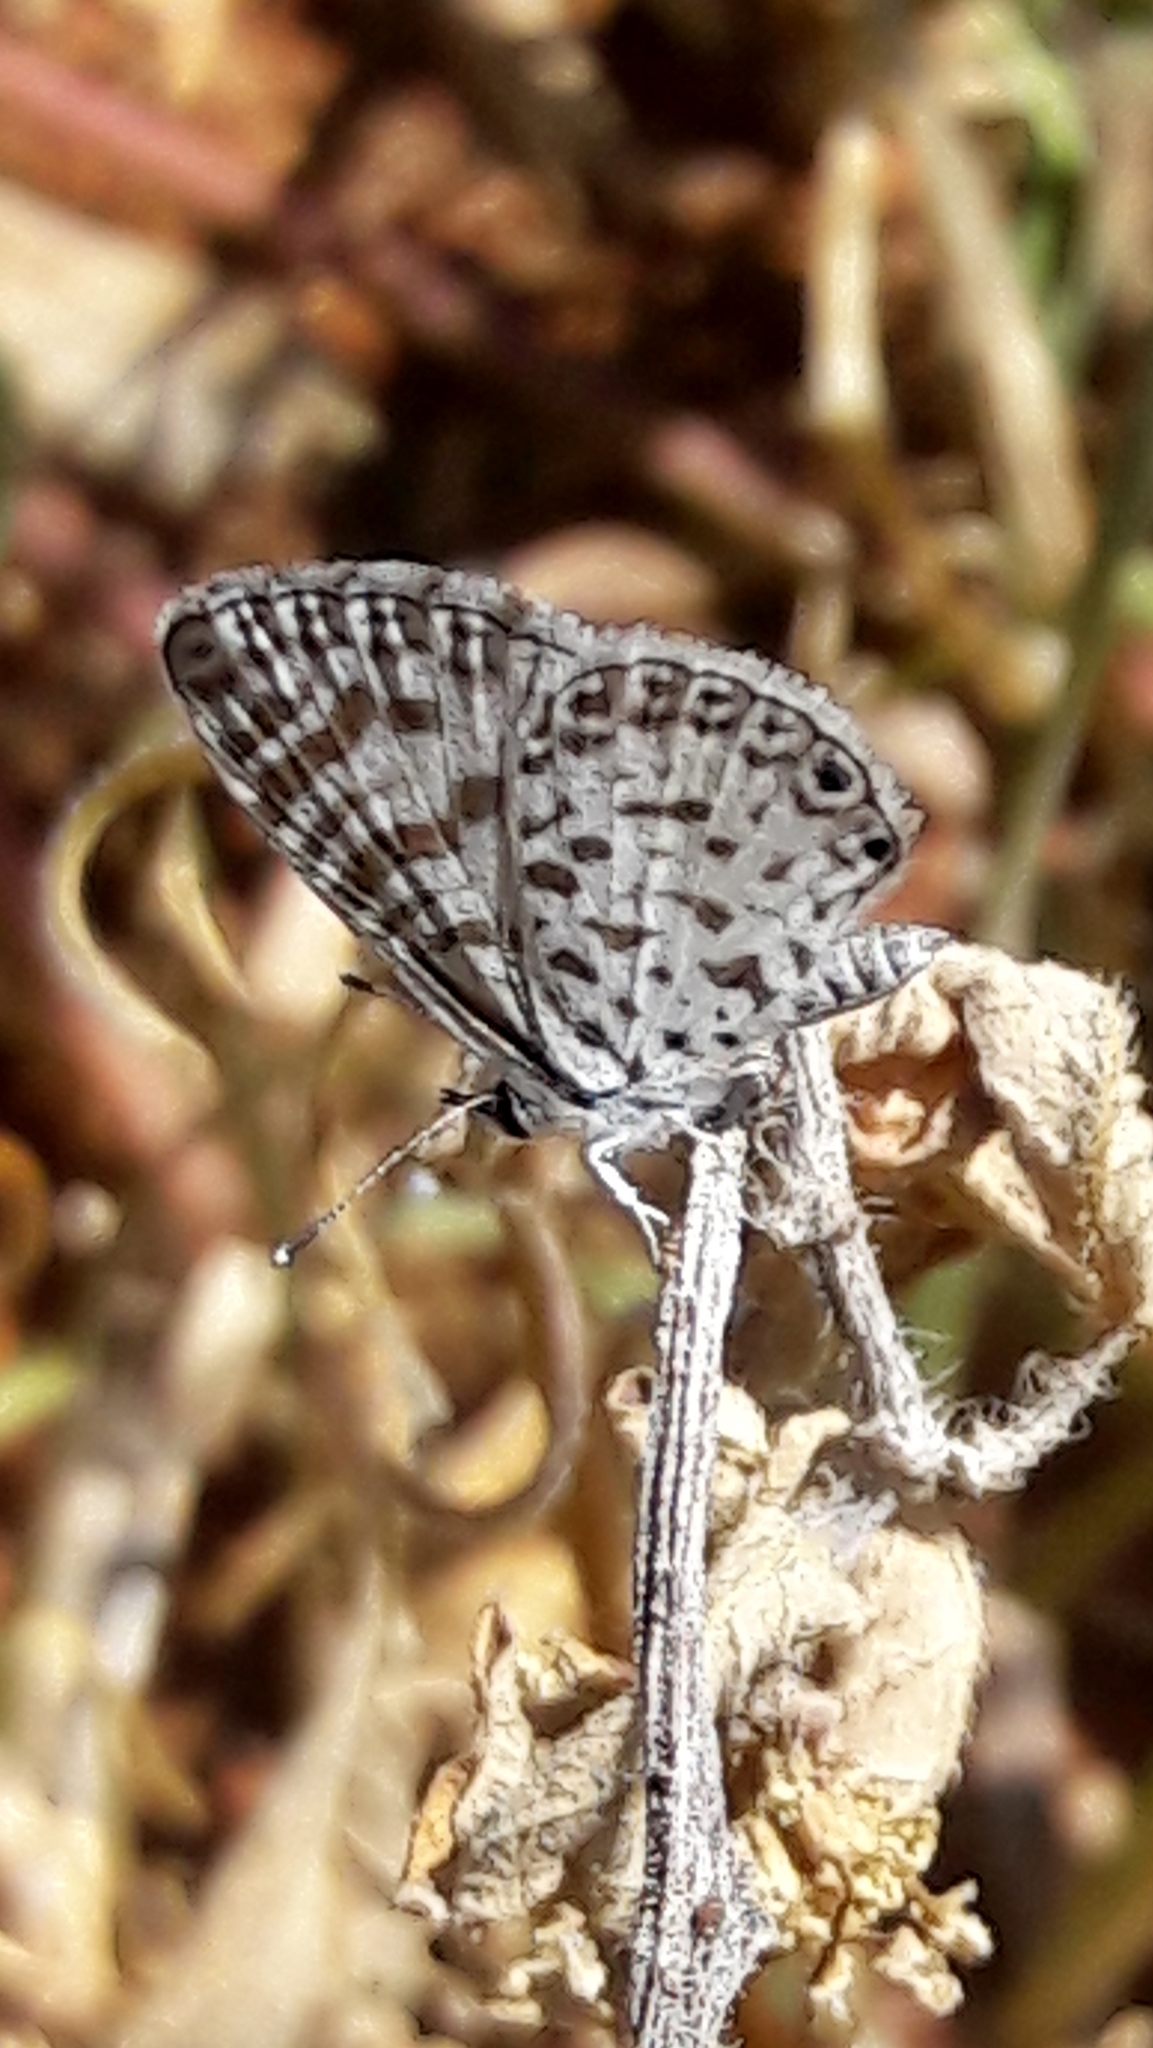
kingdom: Animalia
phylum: Arthropoda
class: Insecta
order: Lepidoptera
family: Lycaenidae
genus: Leptotes
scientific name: Leptotes cassius
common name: Cassius blue
